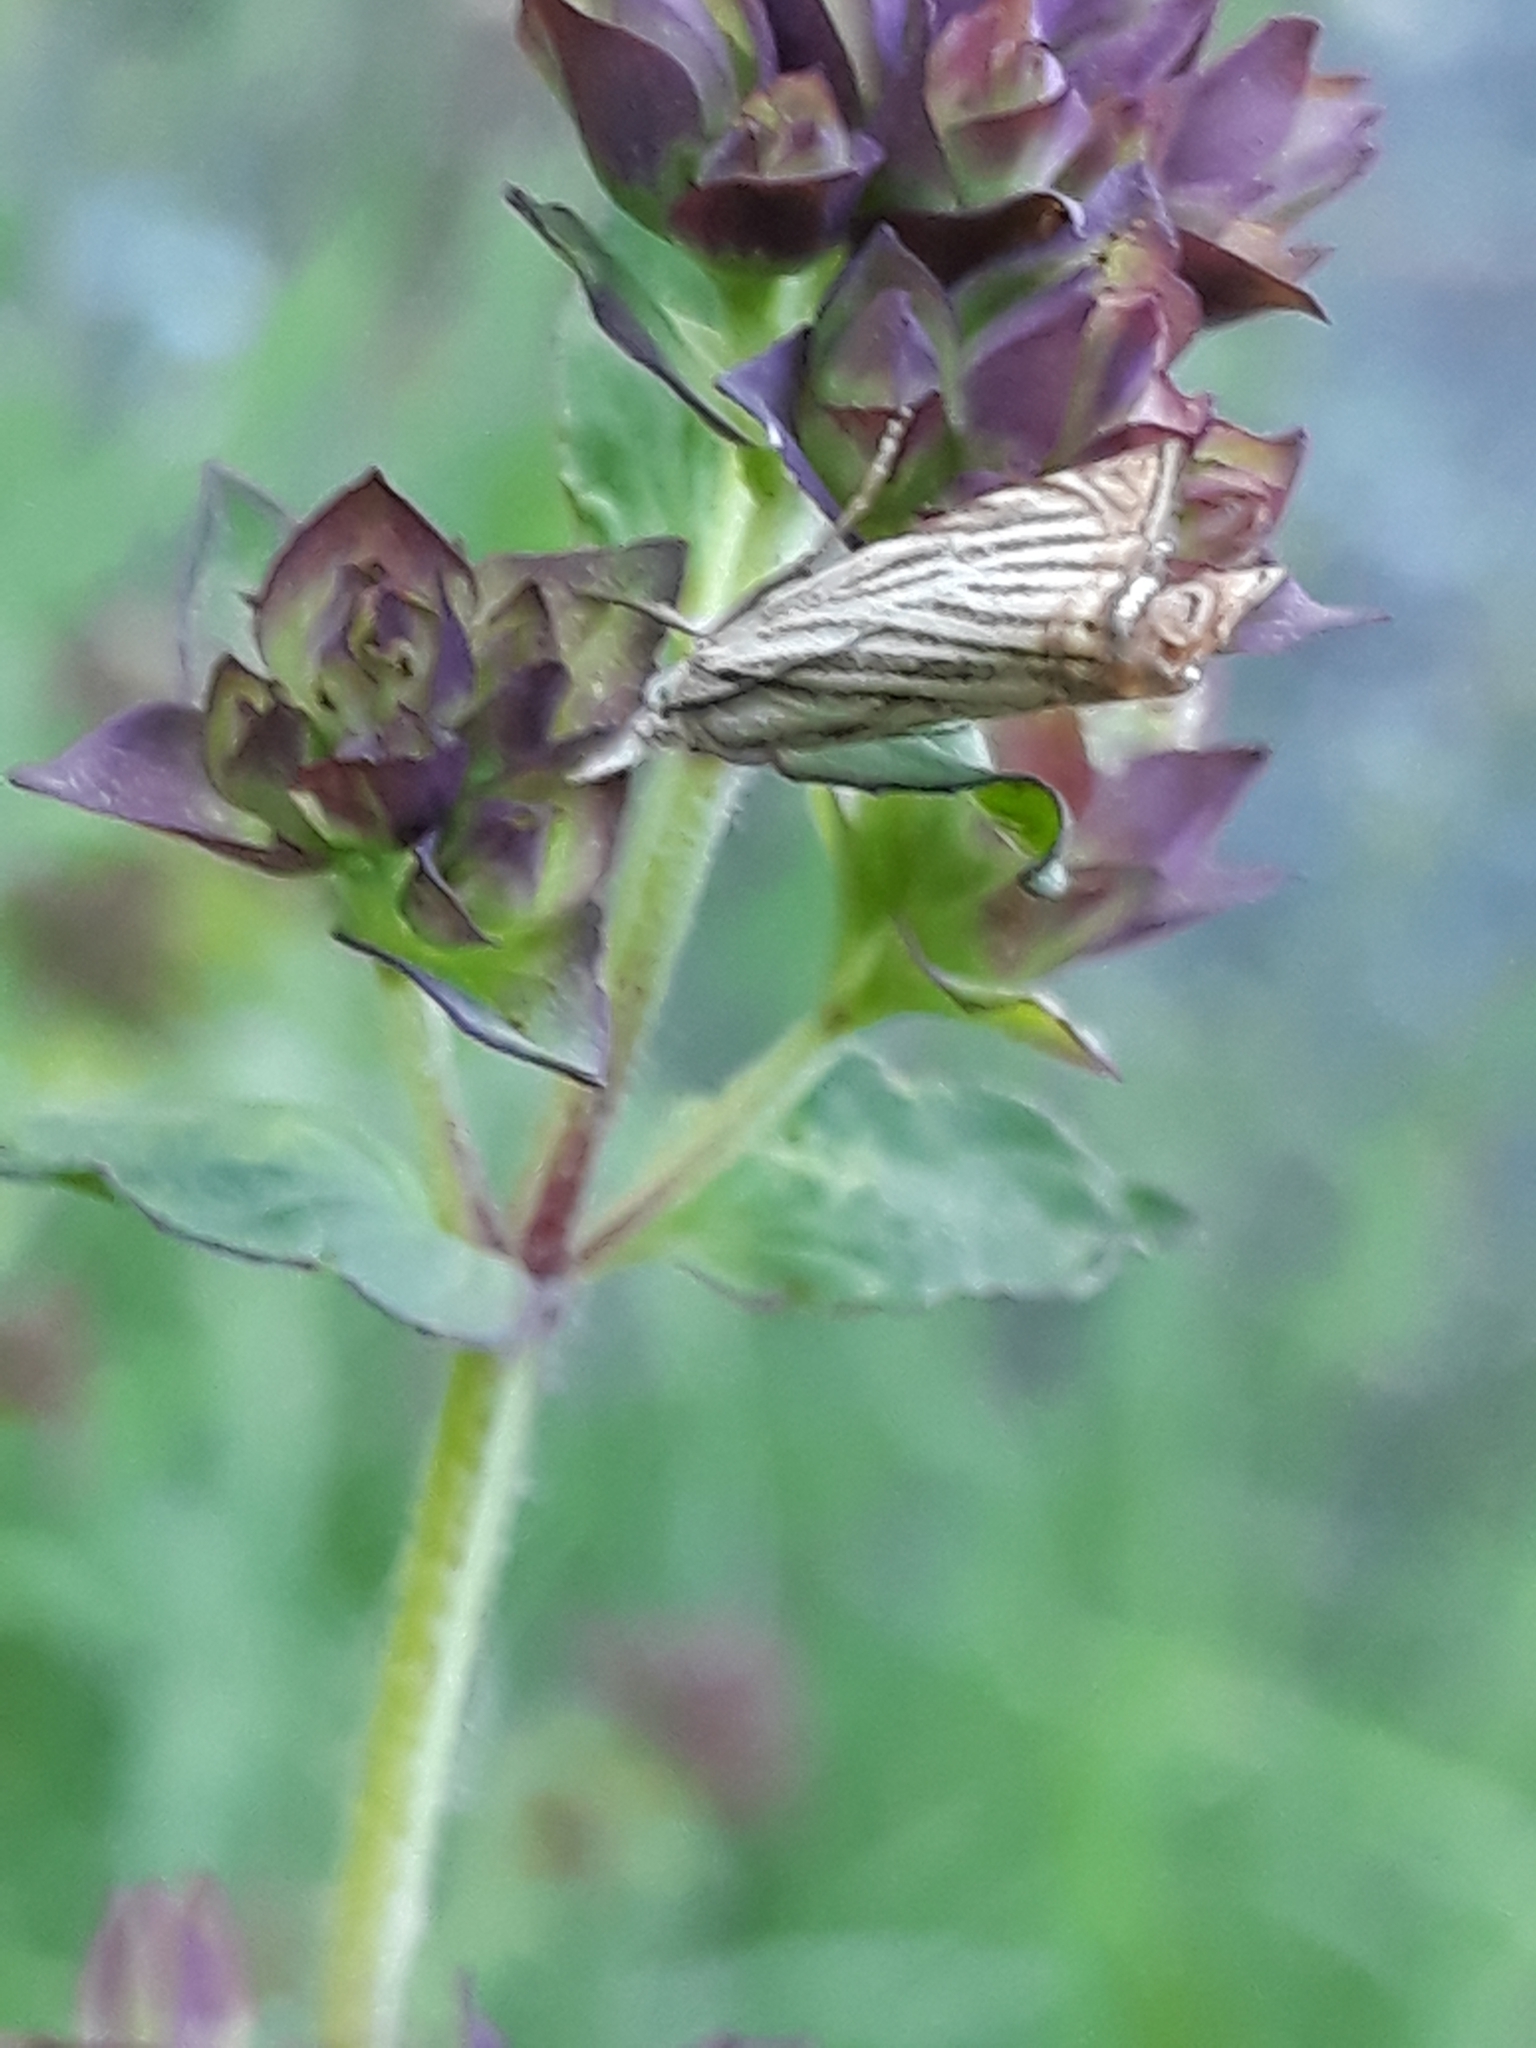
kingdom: Animalia
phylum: Arthropoda
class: Insecta
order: Lepidoptera
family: Crambidae
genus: Chrysoteuchia
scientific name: Chrysoteuchia culmella
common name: Garden grass-veneer
